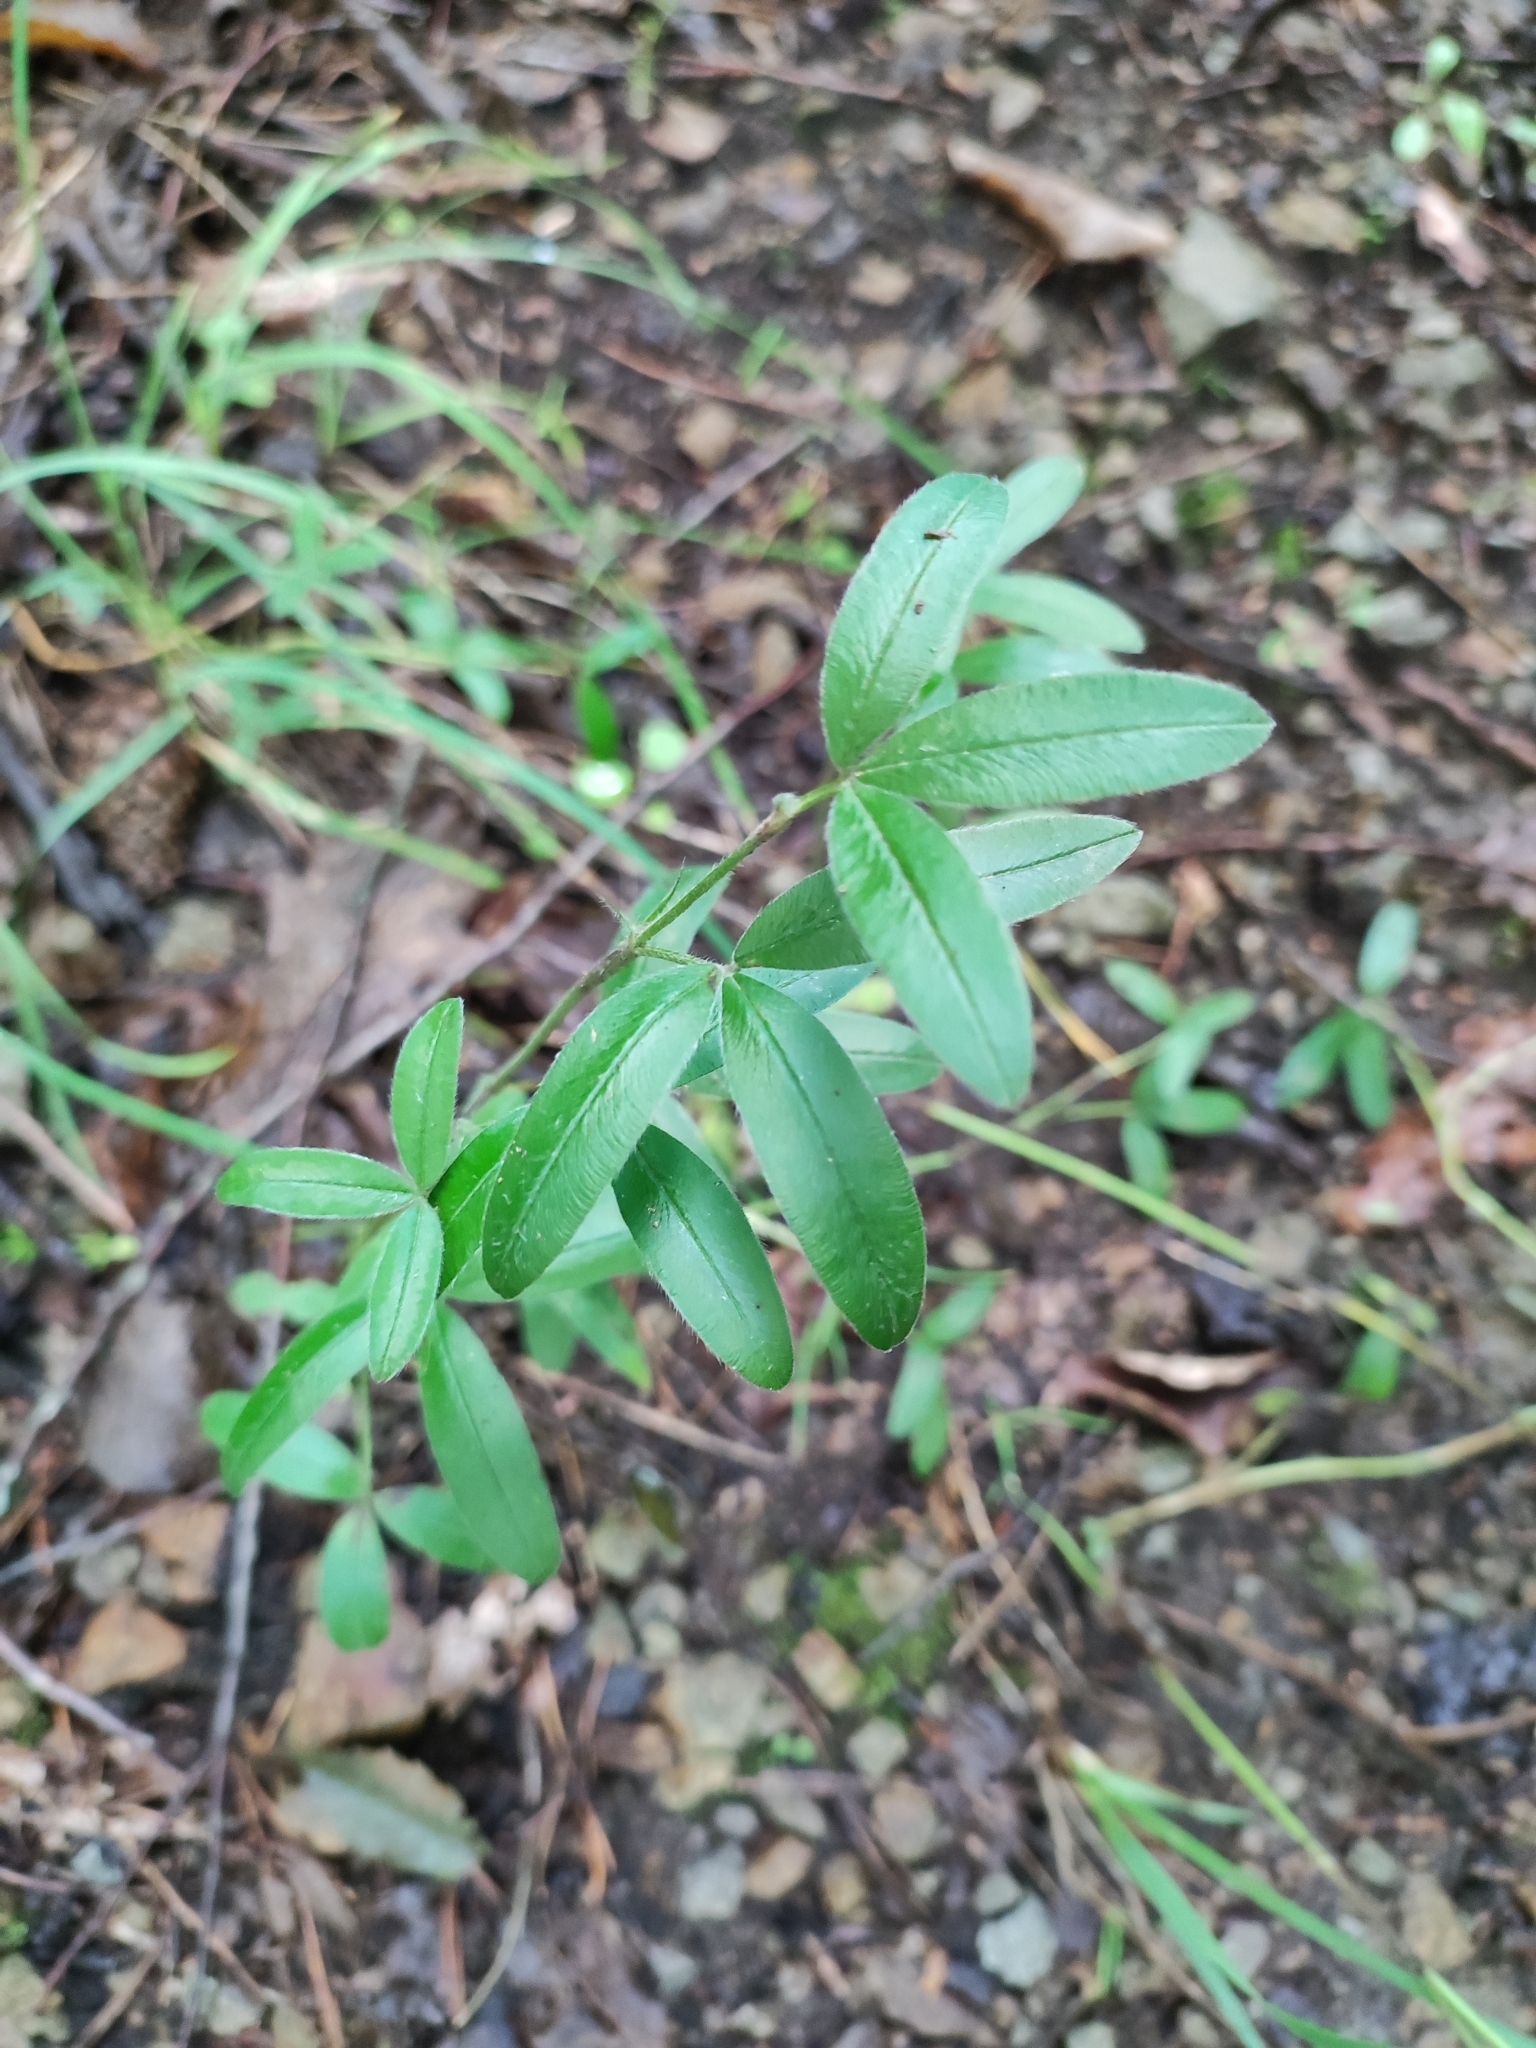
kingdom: Plantae
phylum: Tracheophyta
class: Magnoliopsida
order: Fabales
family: Fabaceae
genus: Trifolium
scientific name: Trifolium alpestre
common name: Owl-head clover
